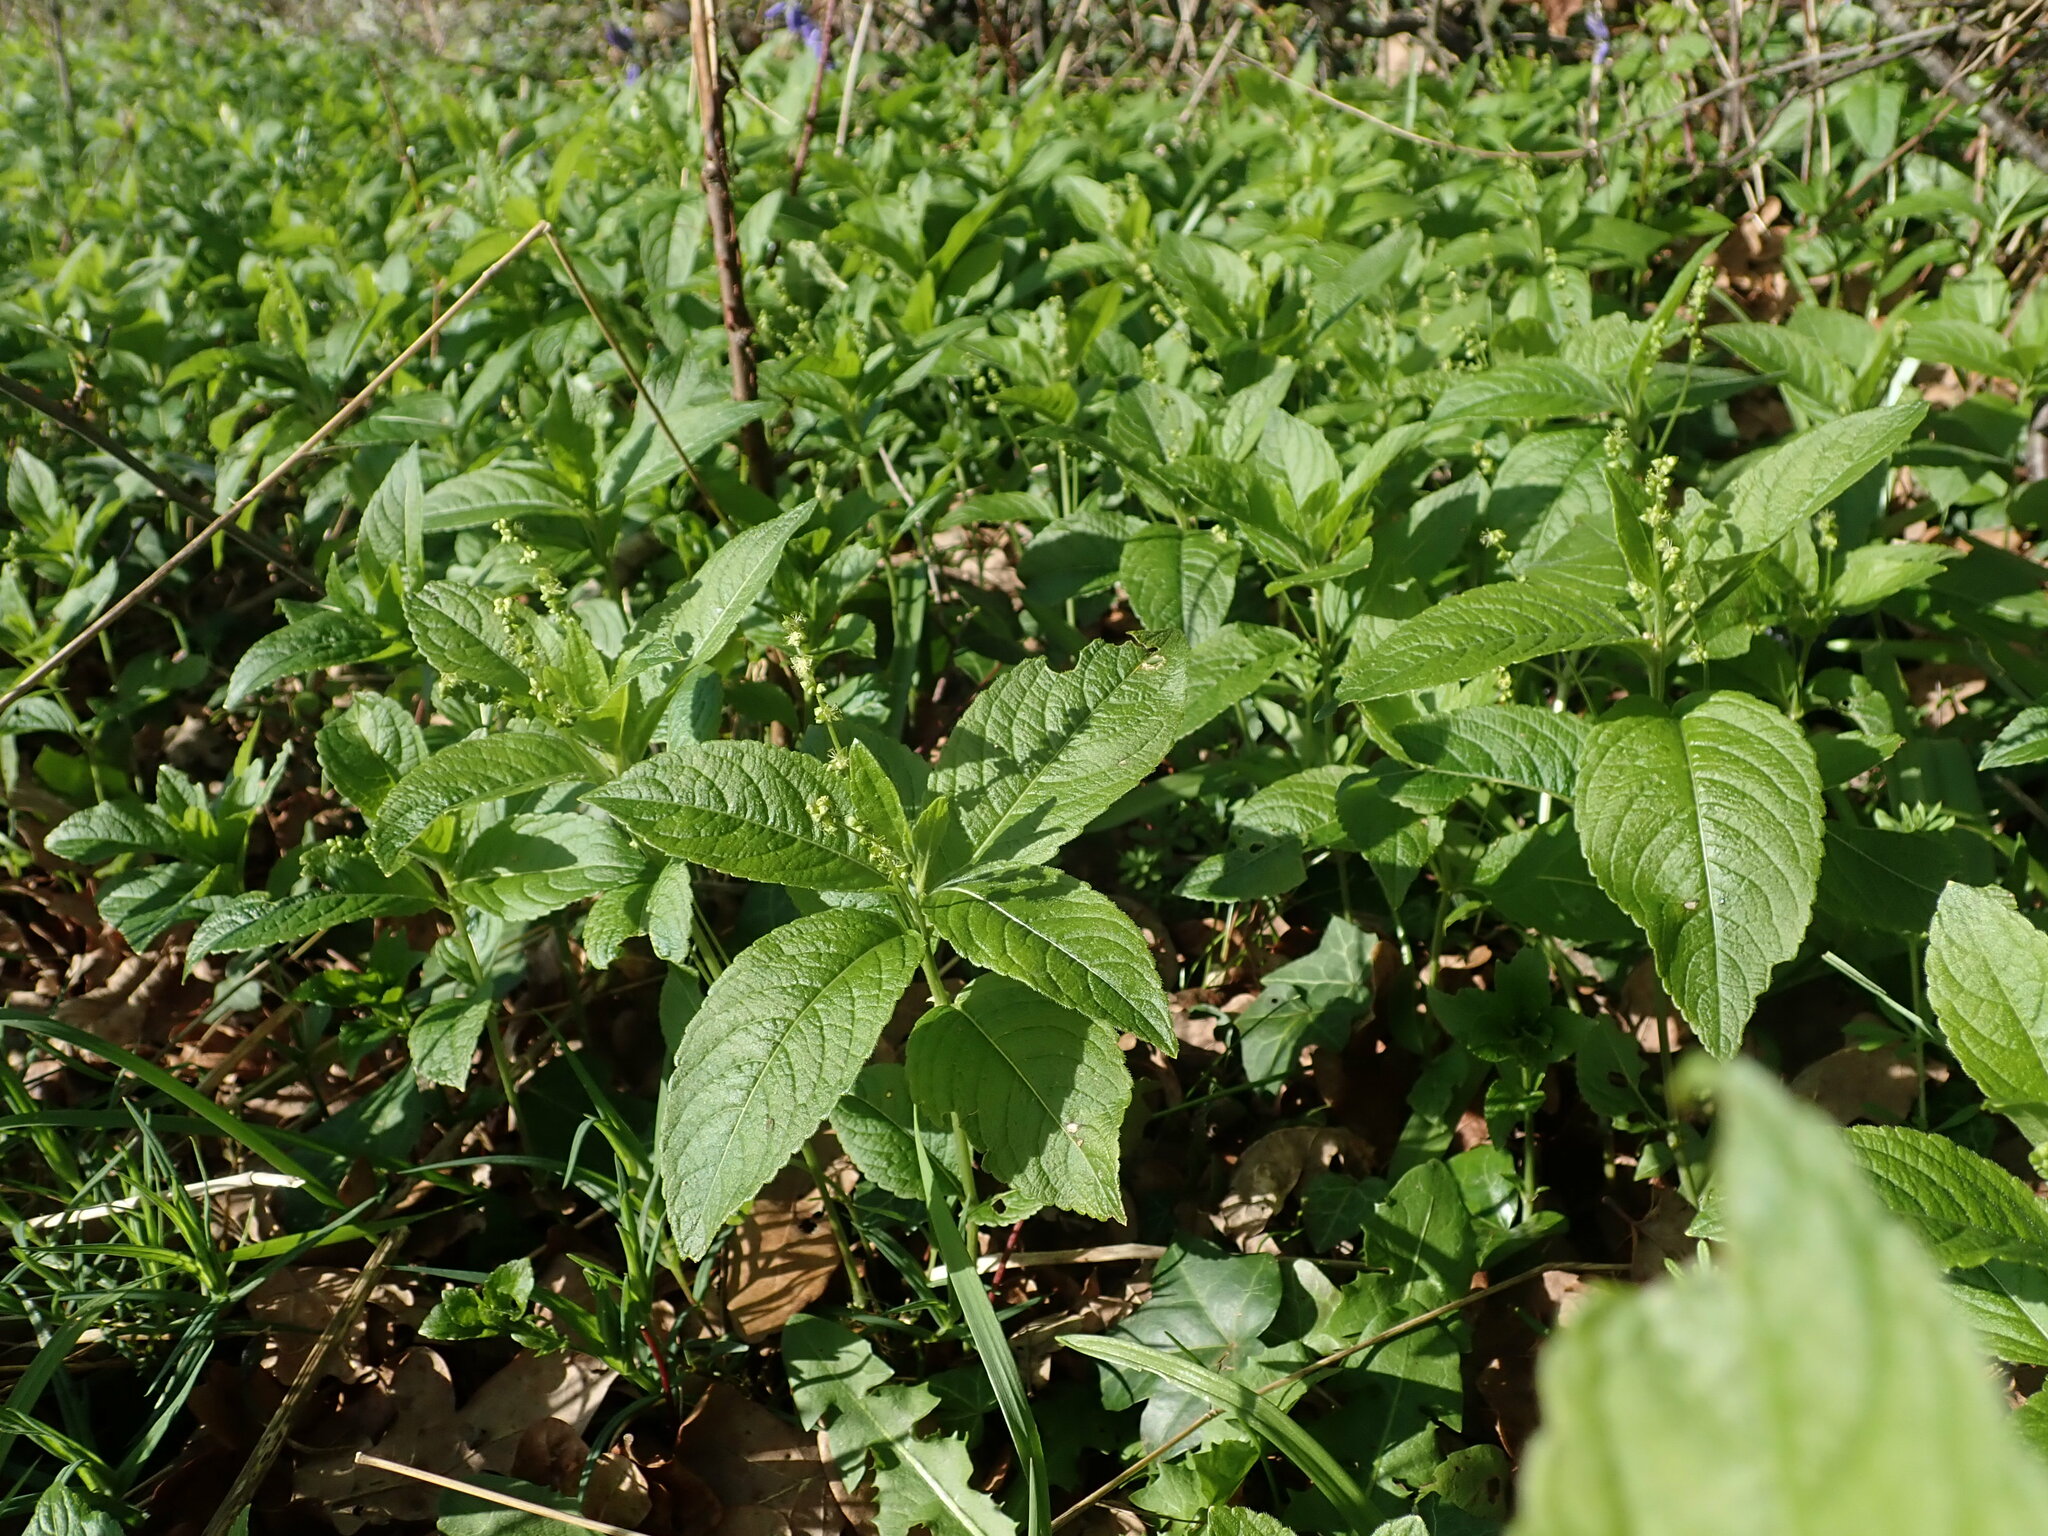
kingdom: Plantae
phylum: Tracheophyta
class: Magnoliopsida
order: Malpighiales
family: Euphorbiaceae
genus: Mercurialis
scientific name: Mercurialis perennis
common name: Dog mercury
